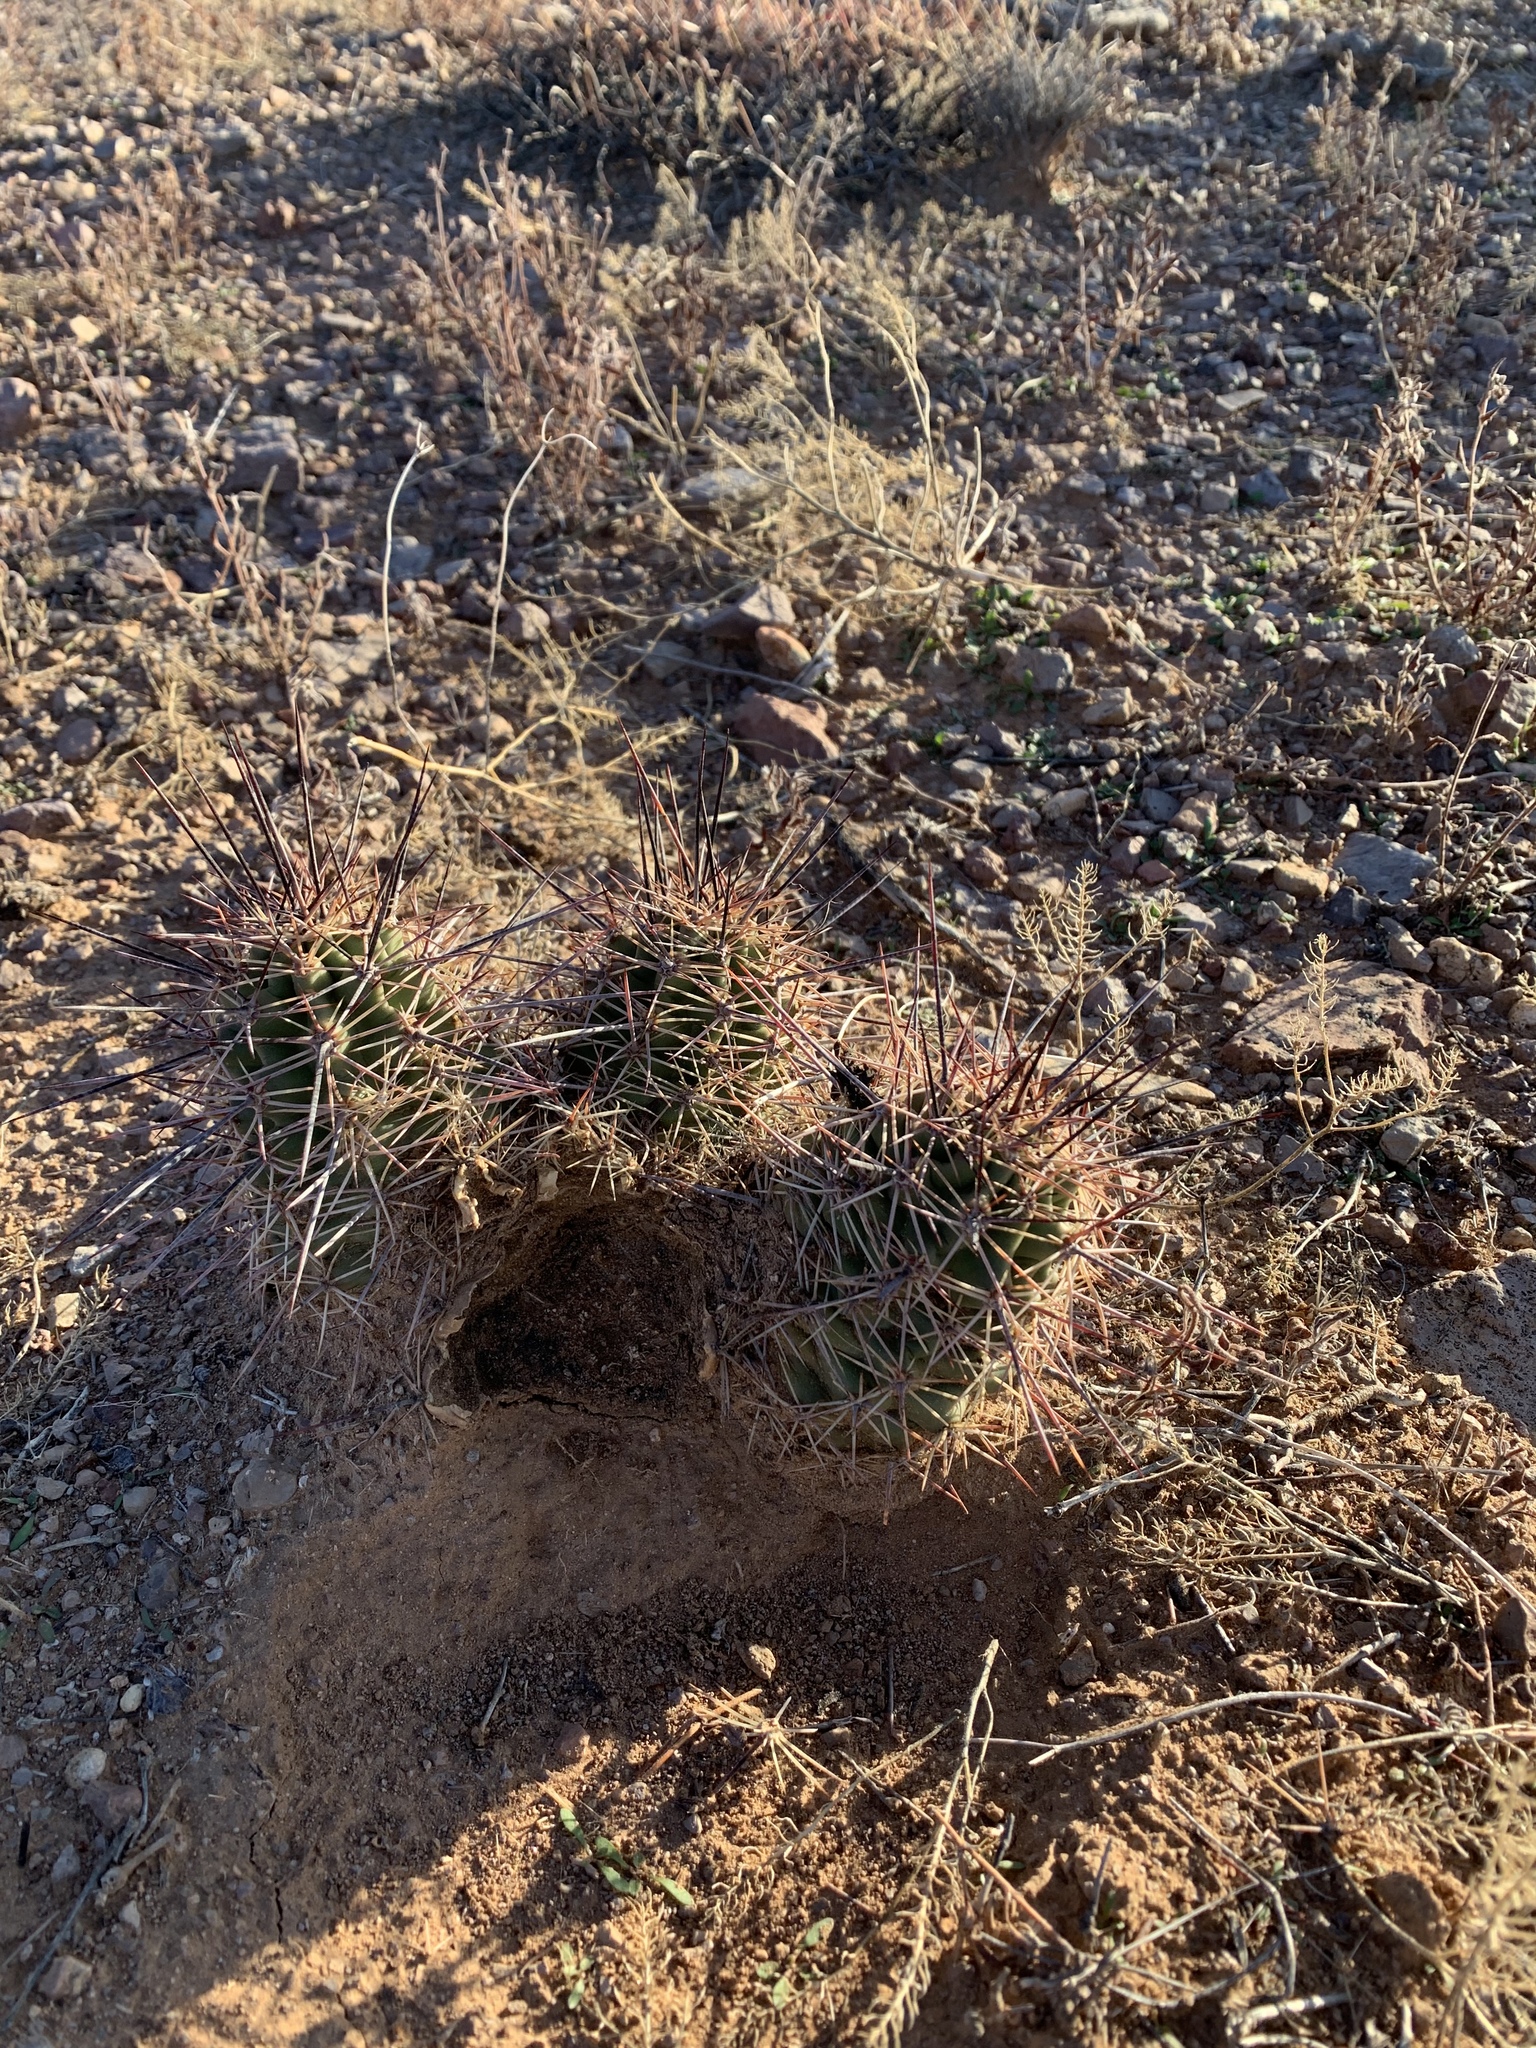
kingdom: Plantae
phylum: Tracheophyta
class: Magnoliopsida
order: Caryophyllales
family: Cactaceae
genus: Echinocereus
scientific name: Echinocereus coccineus
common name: Scarlet hedgehog cactus
